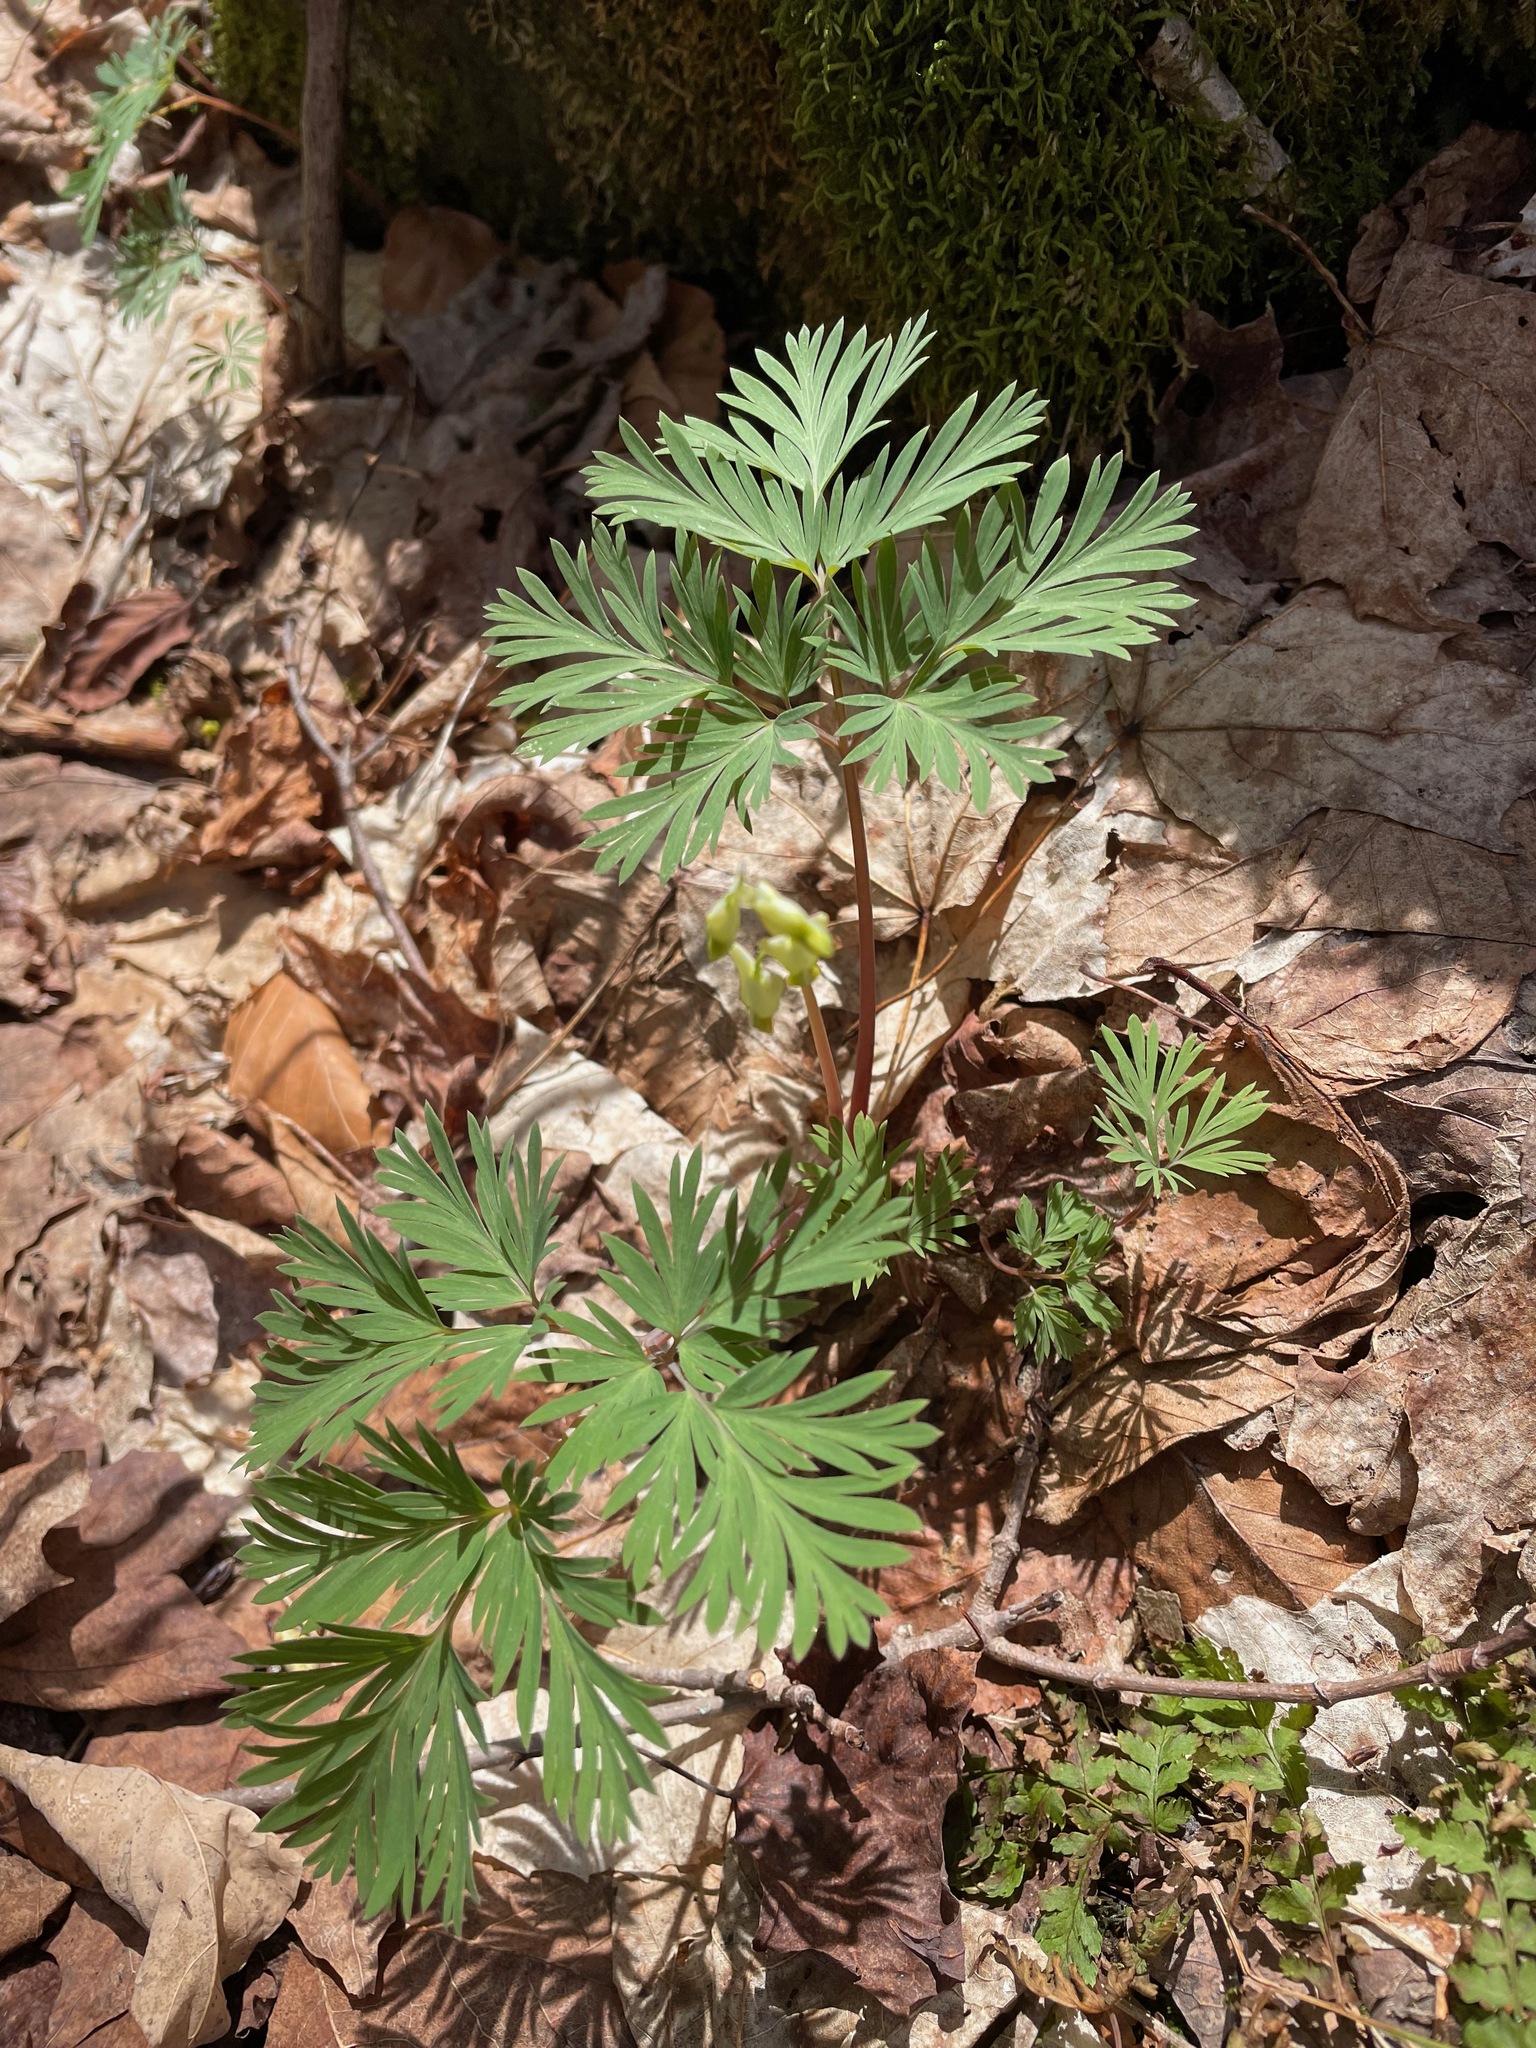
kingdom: Plantae
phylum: Tracheophyta
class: Magnoliopsida
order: Ranunculales
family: Papaveraceae
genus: Dicentra
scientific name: Dicentra cucullaria
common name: Dutchman's breeches
